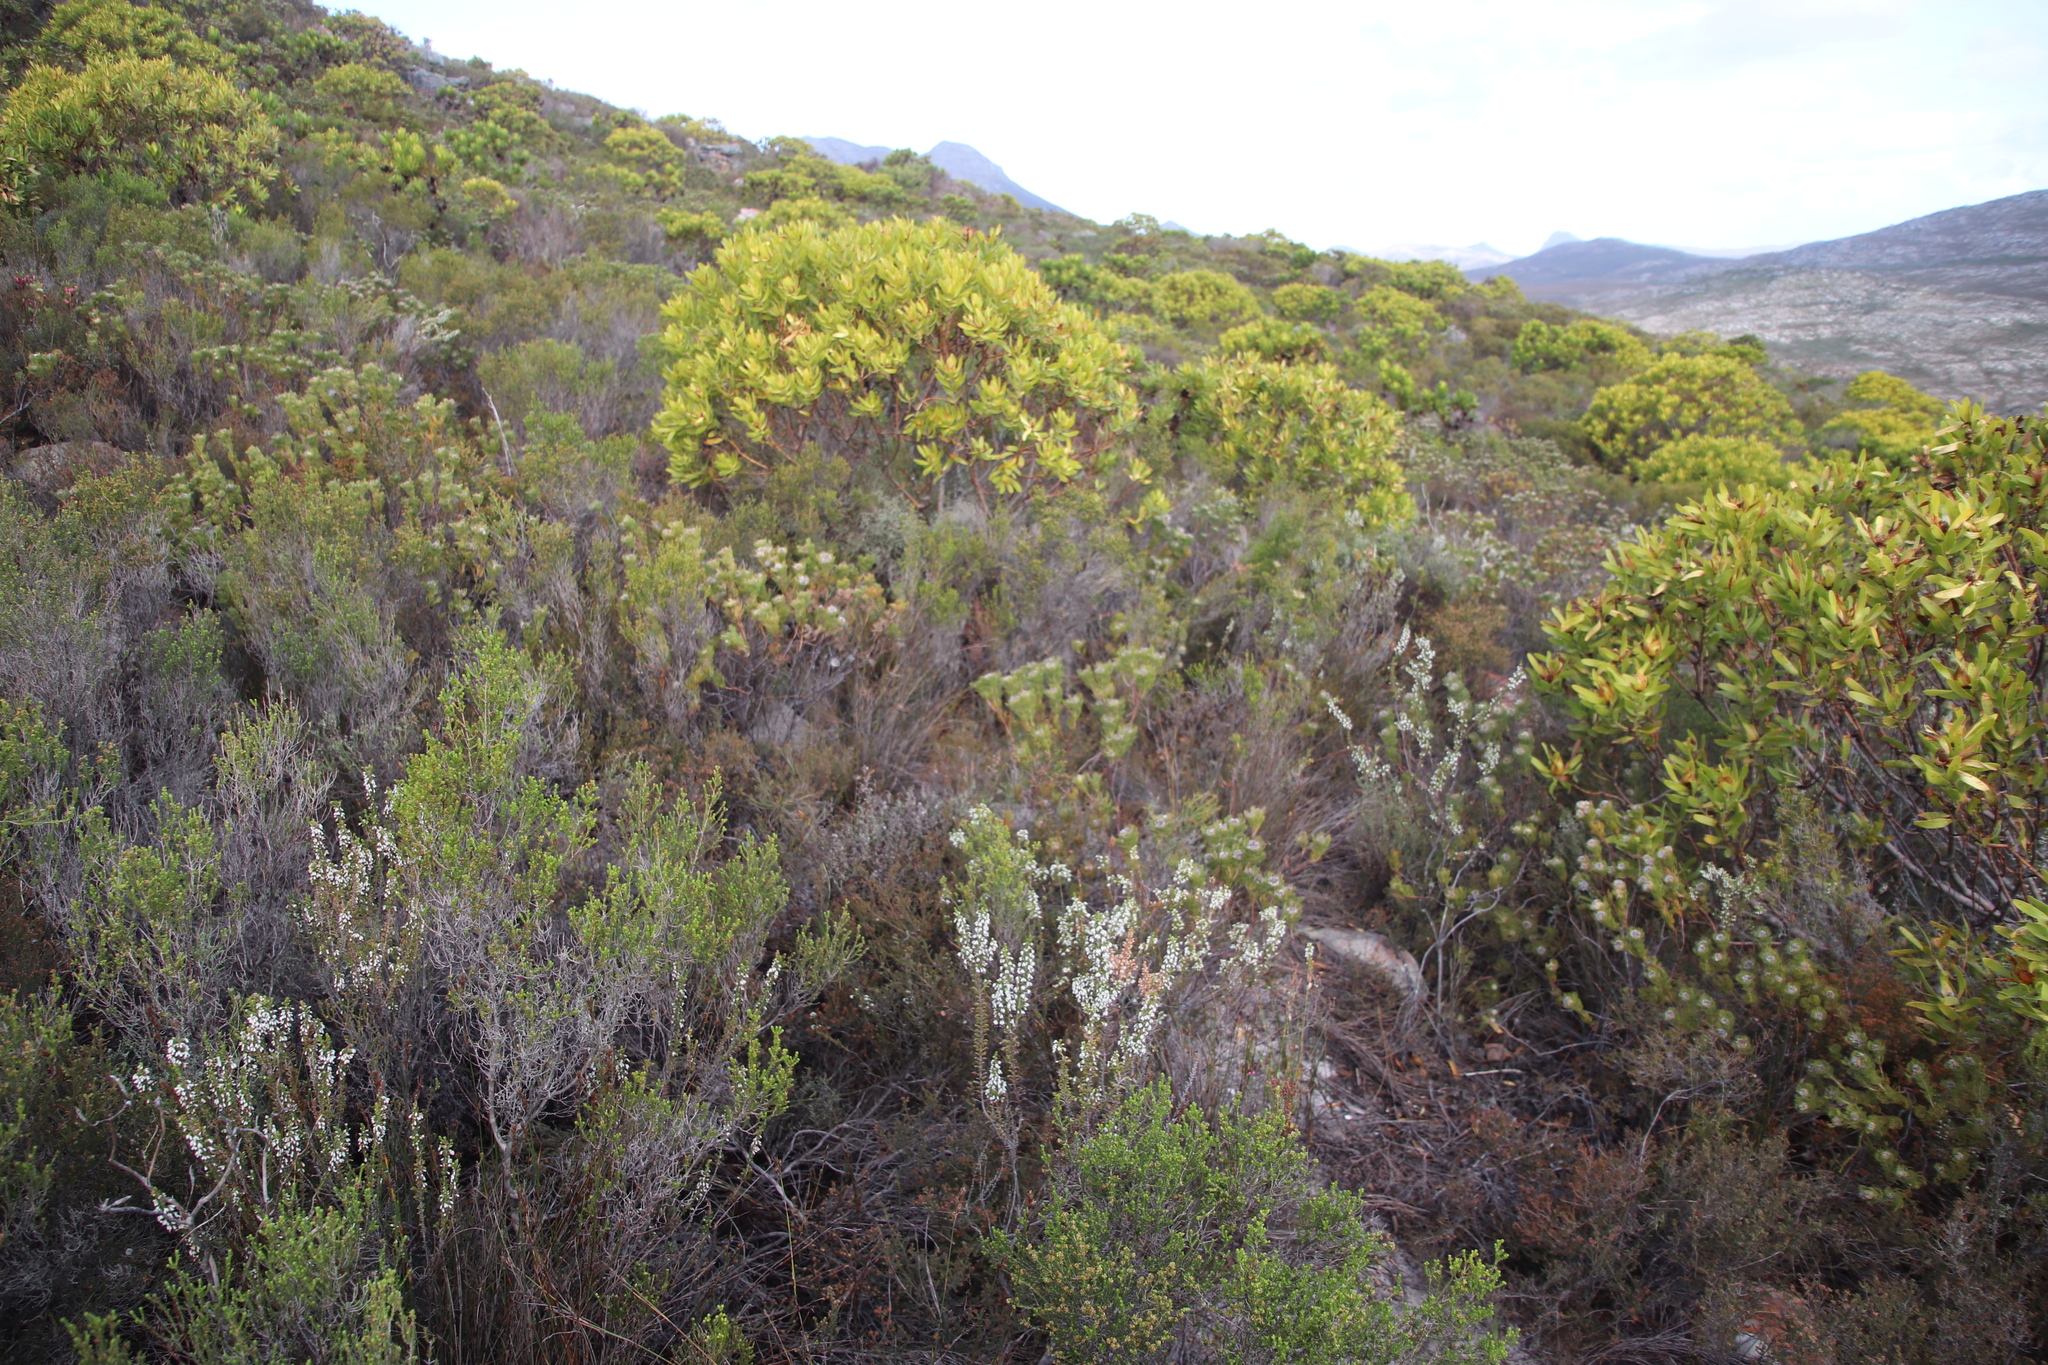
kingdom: Plantae
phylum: Tracheophyta
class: Magnoliopsida
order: Ericales
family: Ericaceae
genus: Erica
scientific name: Erica imbricata
